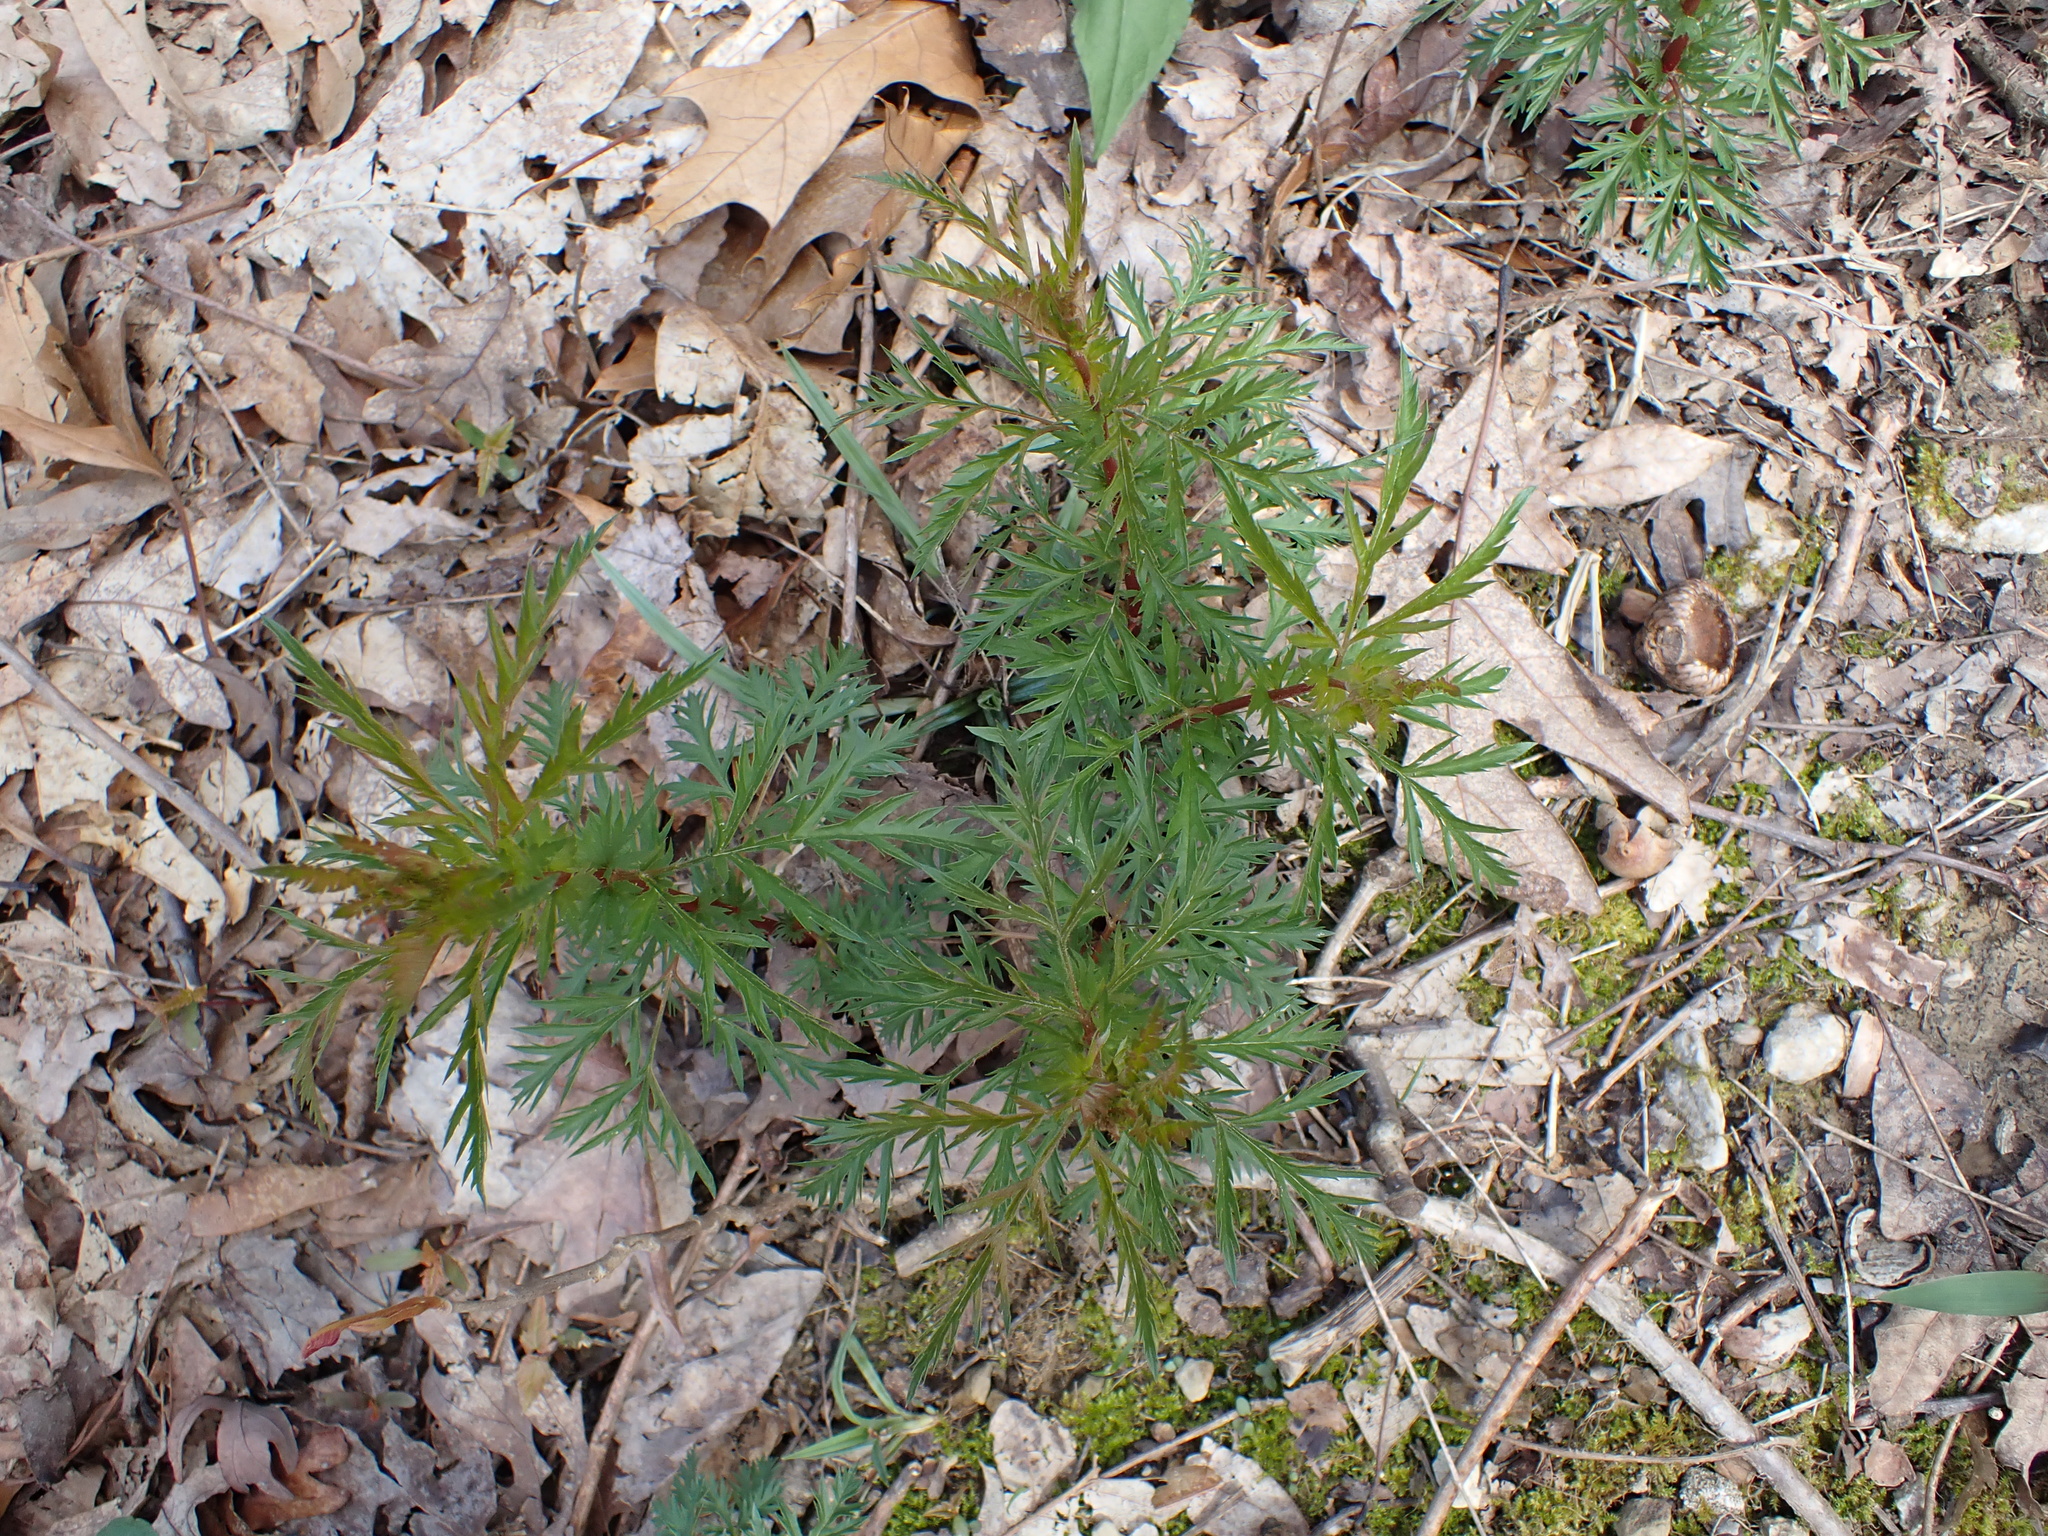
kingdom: Plantae
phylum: Tracheophyta
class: Magnoliopsida
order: Rosales
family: Rosaceae
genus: Gillenia
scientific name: Gillenia stipulata
